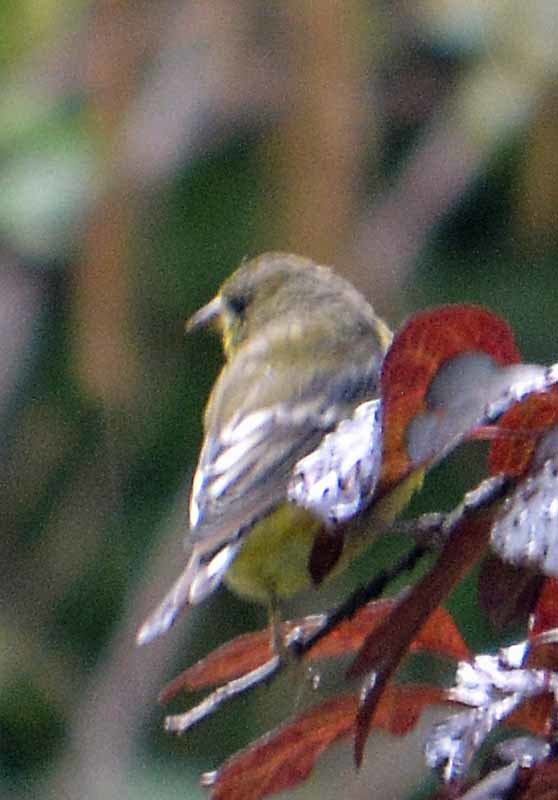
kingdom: Animalia
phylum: Chordata
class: Aves
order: Passeriformes
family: Fringillidae
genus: Spinus
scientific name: Spinus psaltria
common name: Lesser goldfinch
